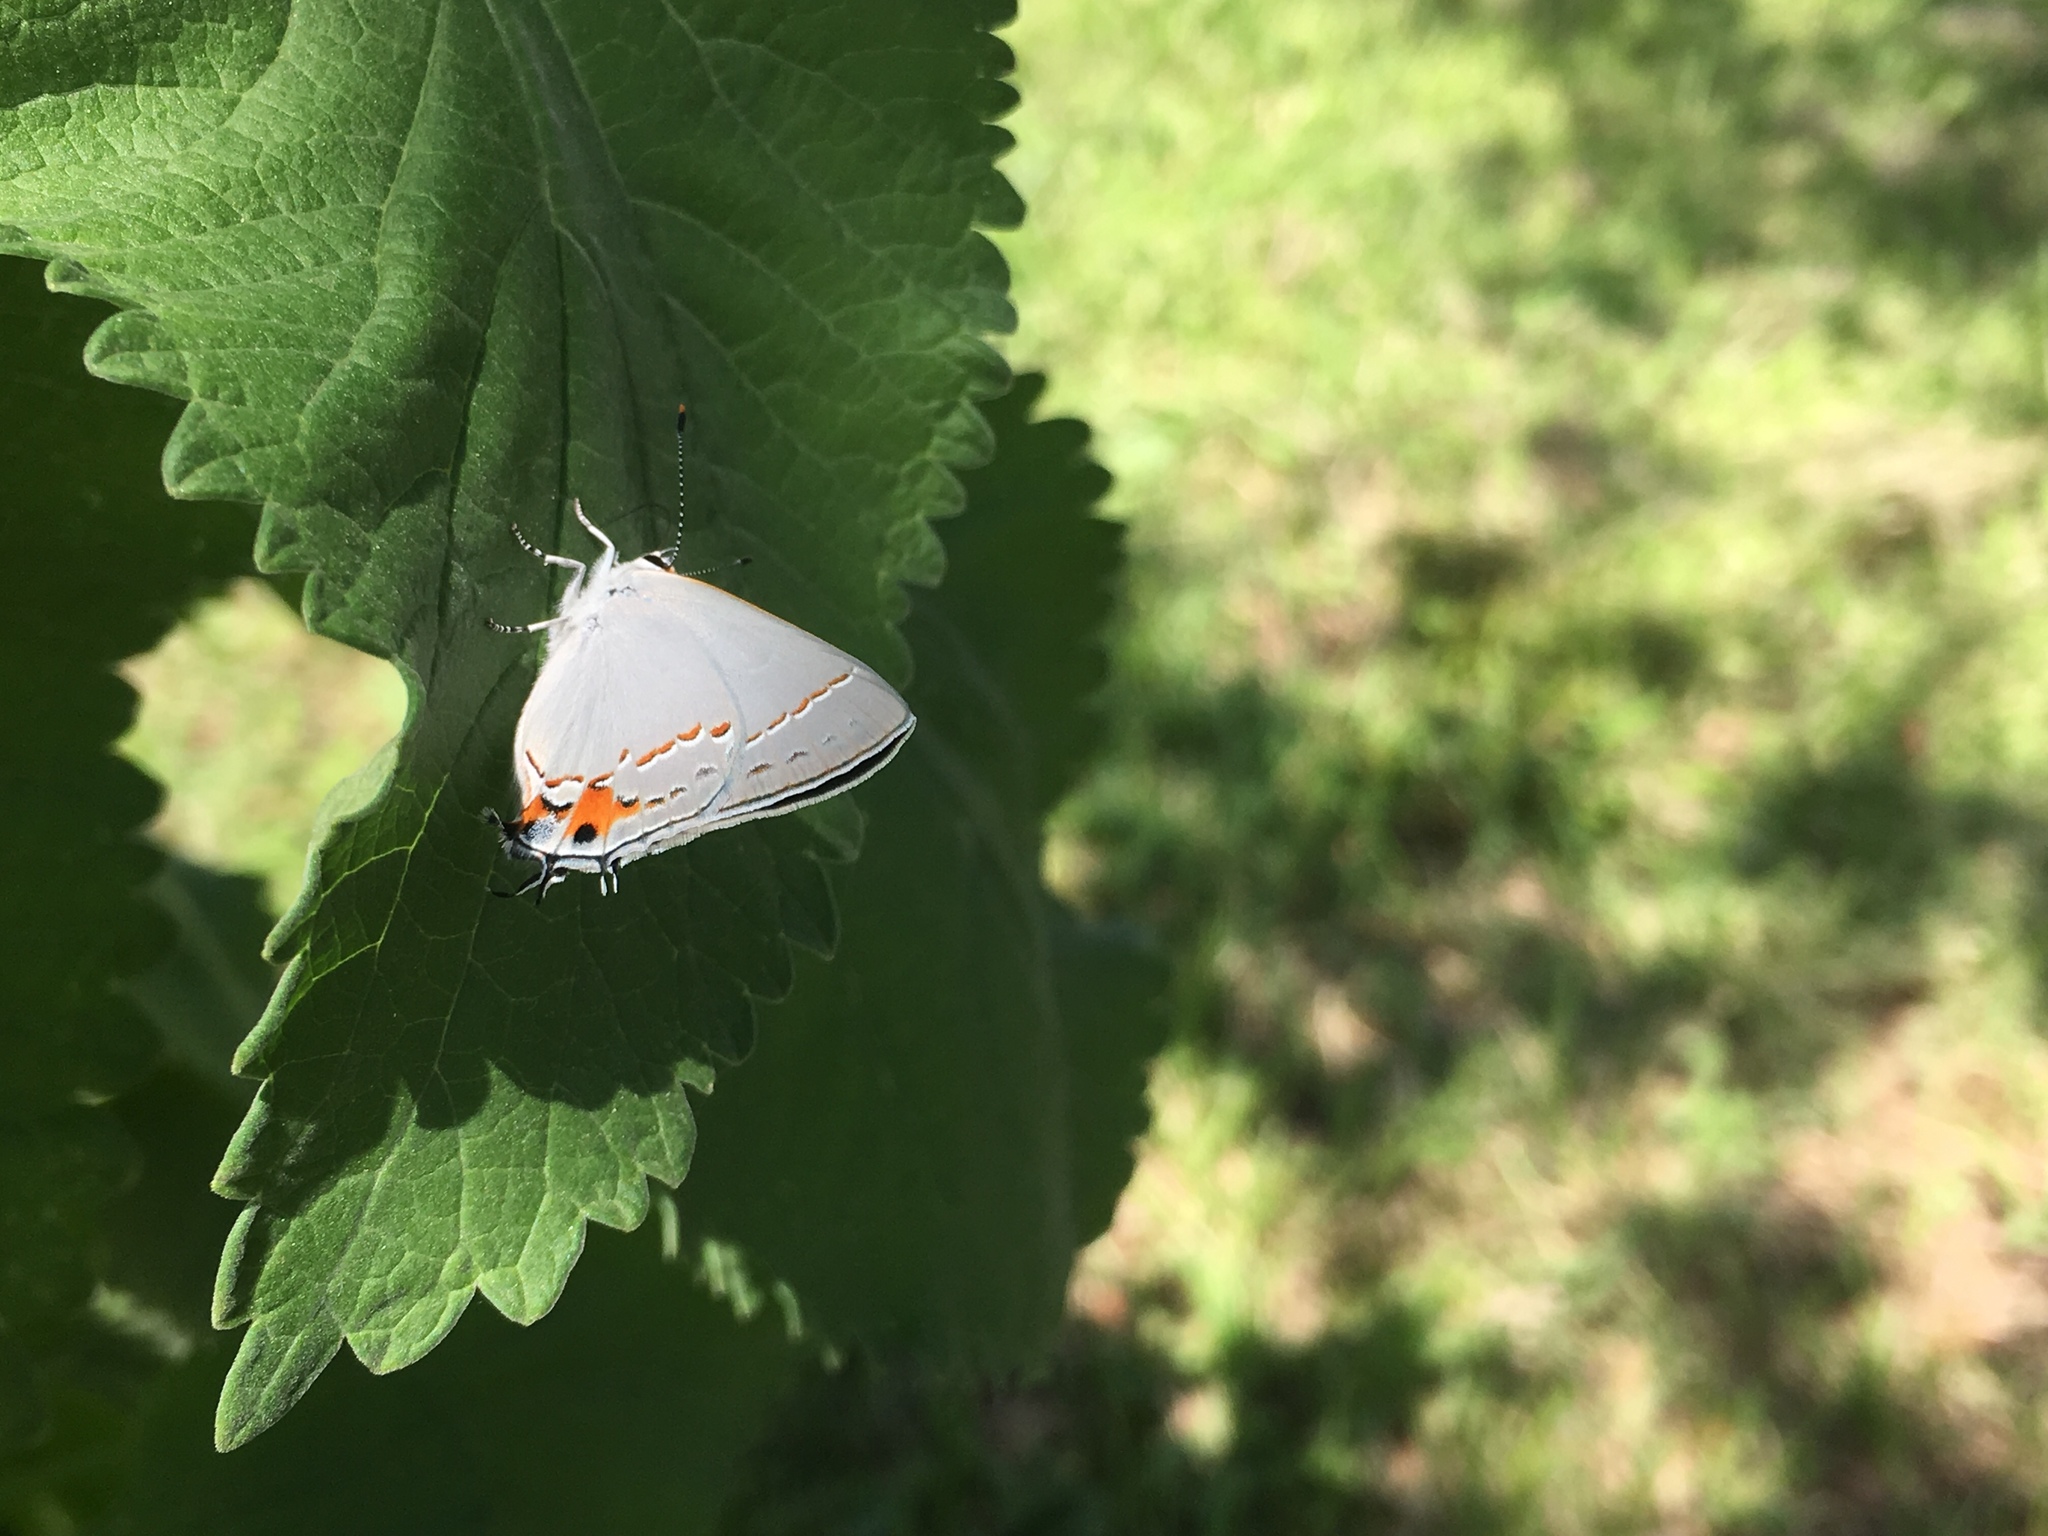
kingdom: Animalia
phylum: Arthropoda
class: Insecta
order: Lepidoptera
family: Lycaenidae
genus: Strymon
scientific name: Strymon melinus
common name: Gray hairstreak
